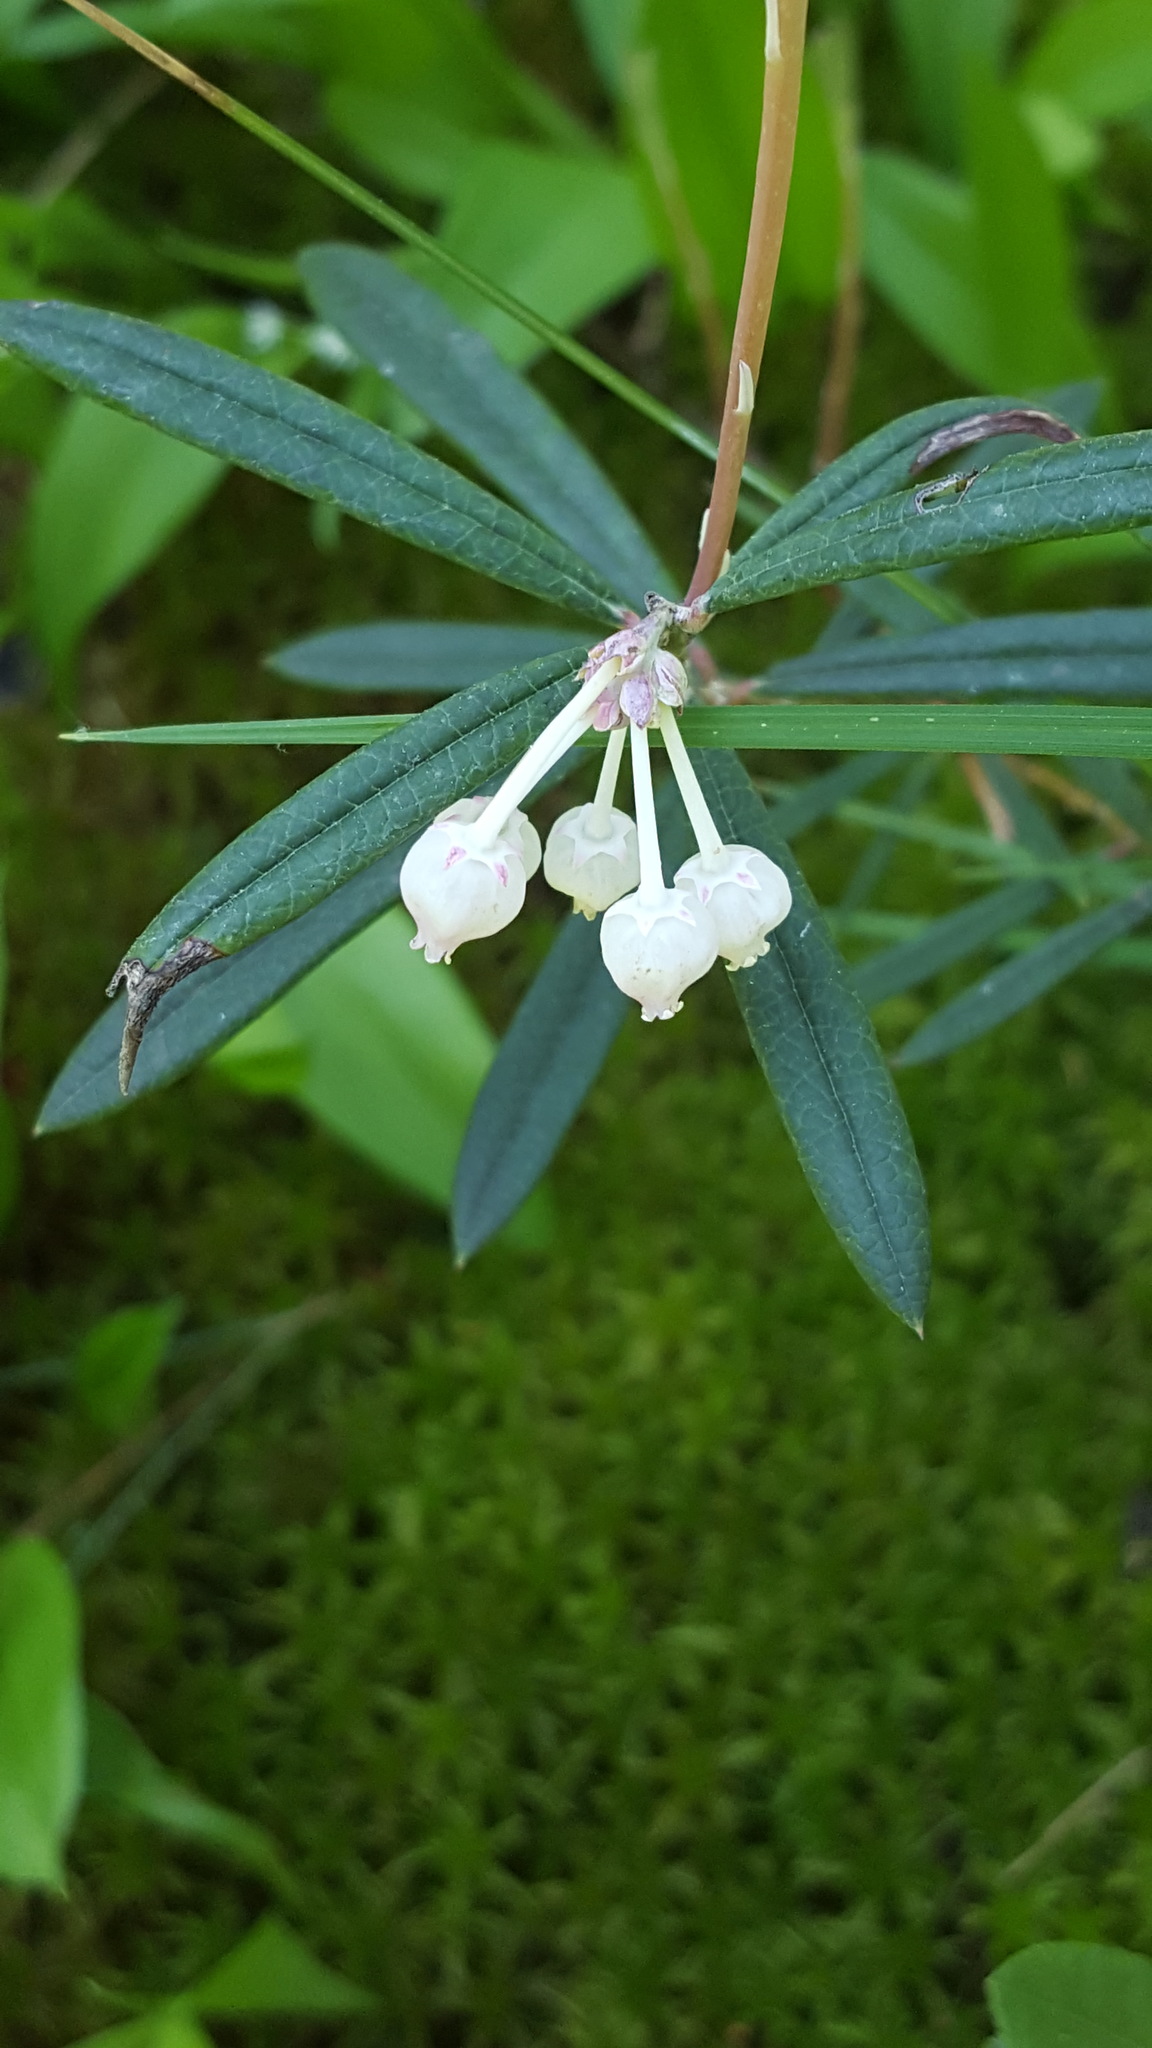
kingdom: Plantae
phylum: Tracheophyta
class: Magnoliopsida
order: Ericales
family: Ericaceae
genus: Andromeda
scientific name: Andromeda polifolia
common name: Bog-rosemary
